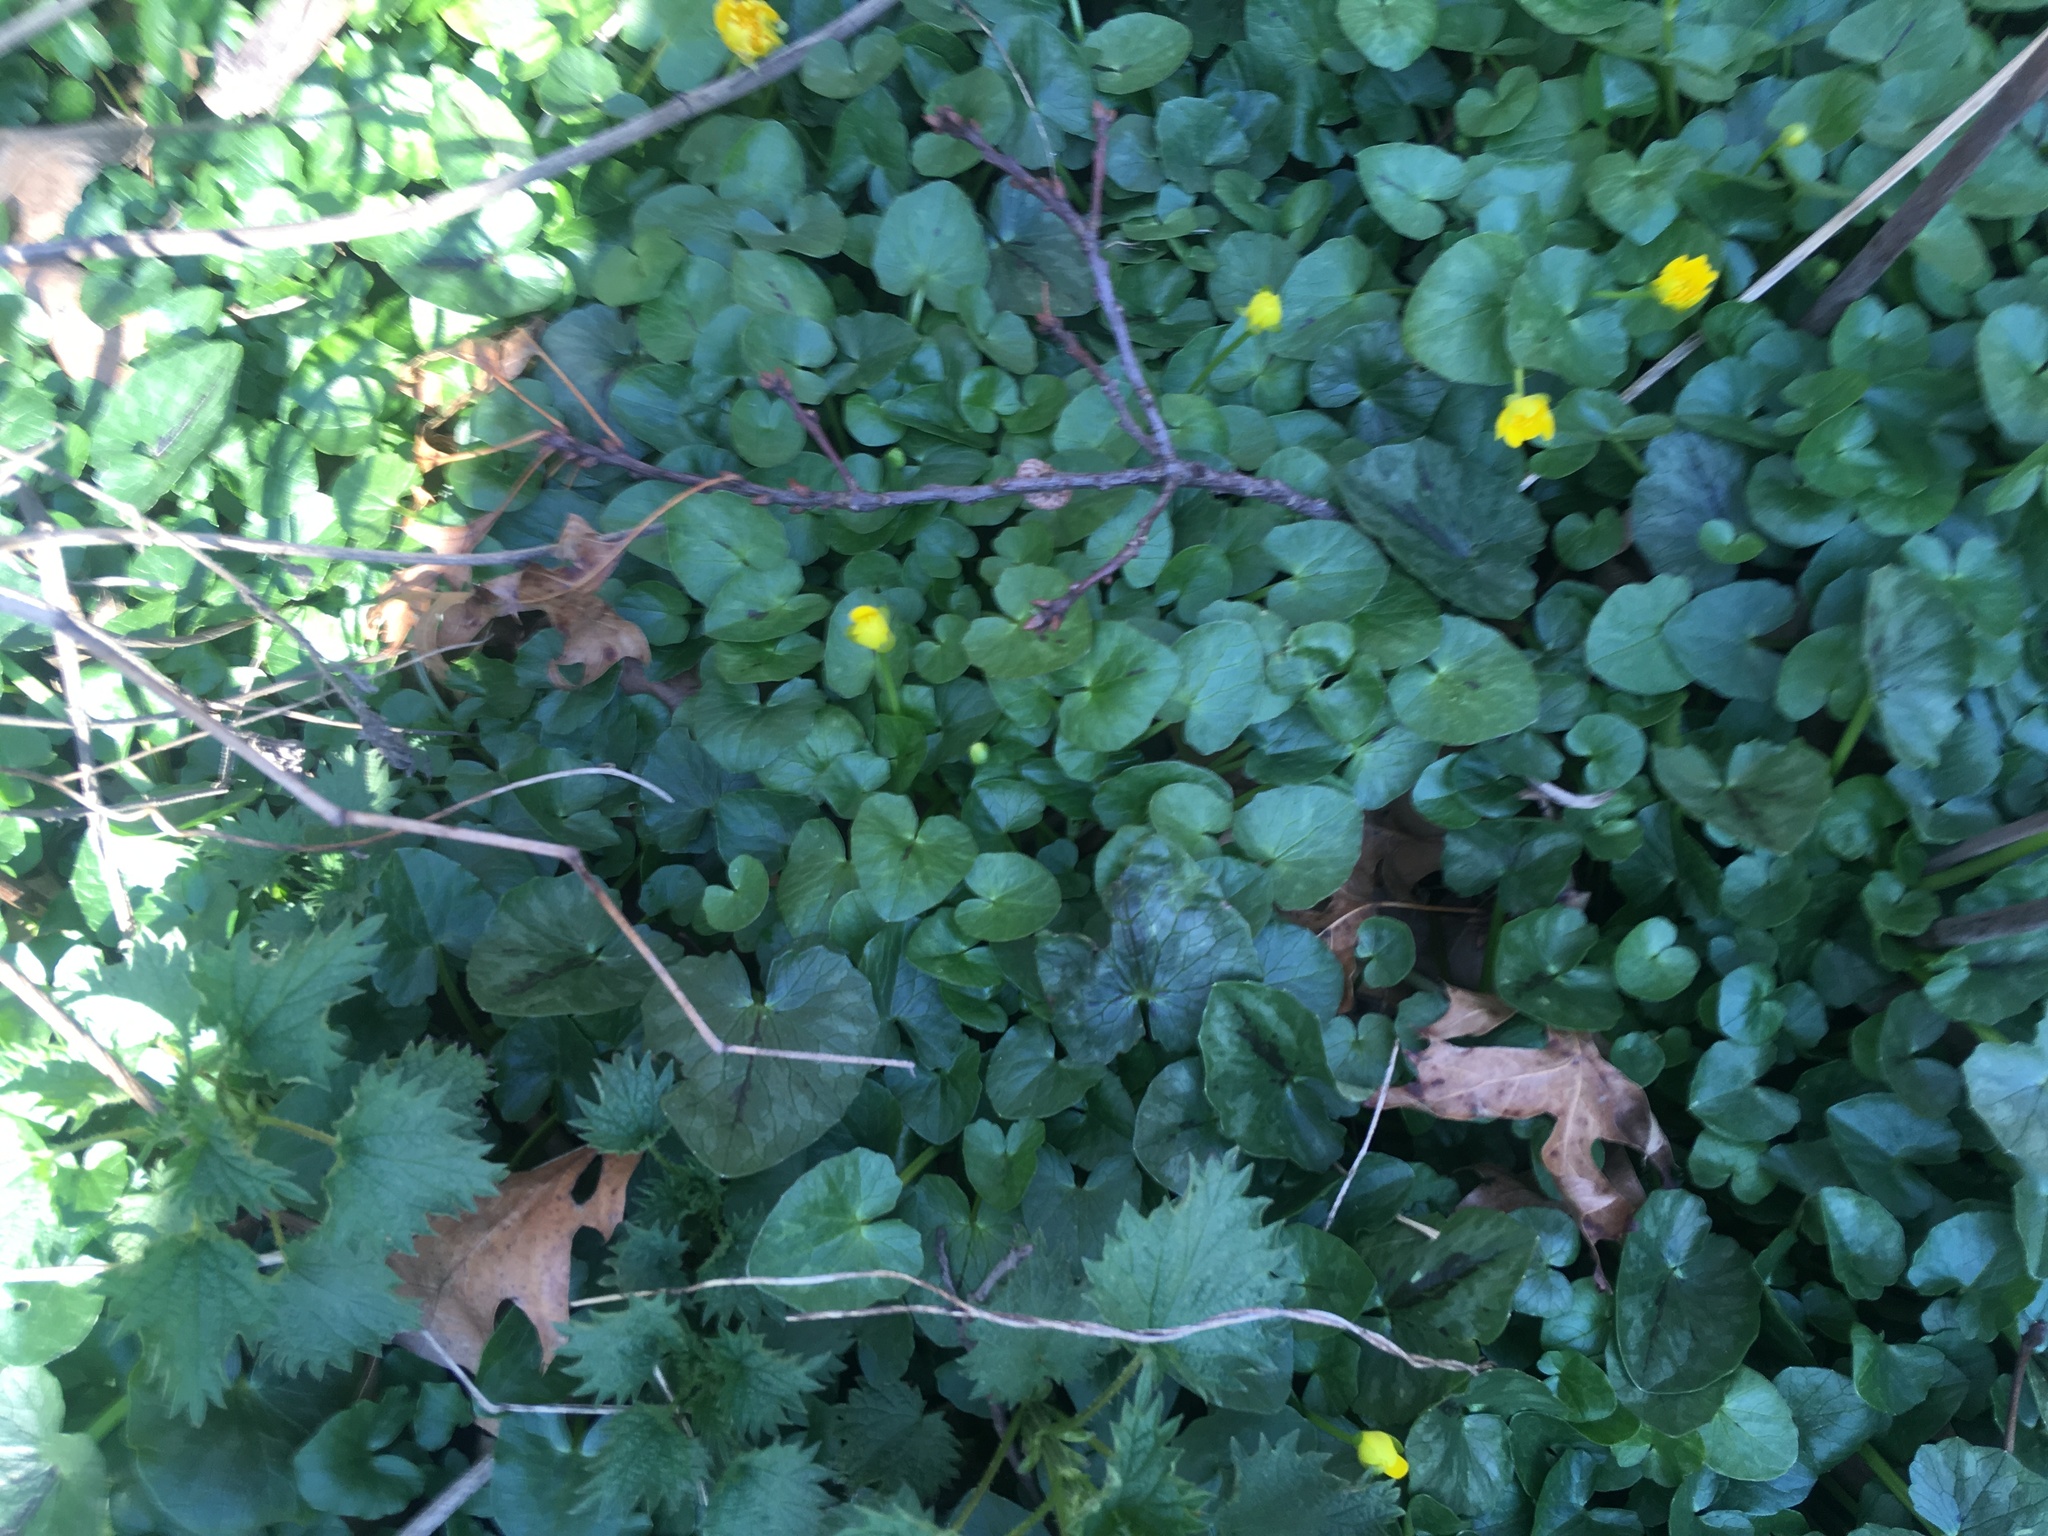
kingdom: Plantae
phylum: Tracheophyta
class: Magnoliopsida
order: Ranunculales
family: Ranunculaceae
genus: Ficaria
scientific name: Ficaria verna
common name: Lesser celandine
